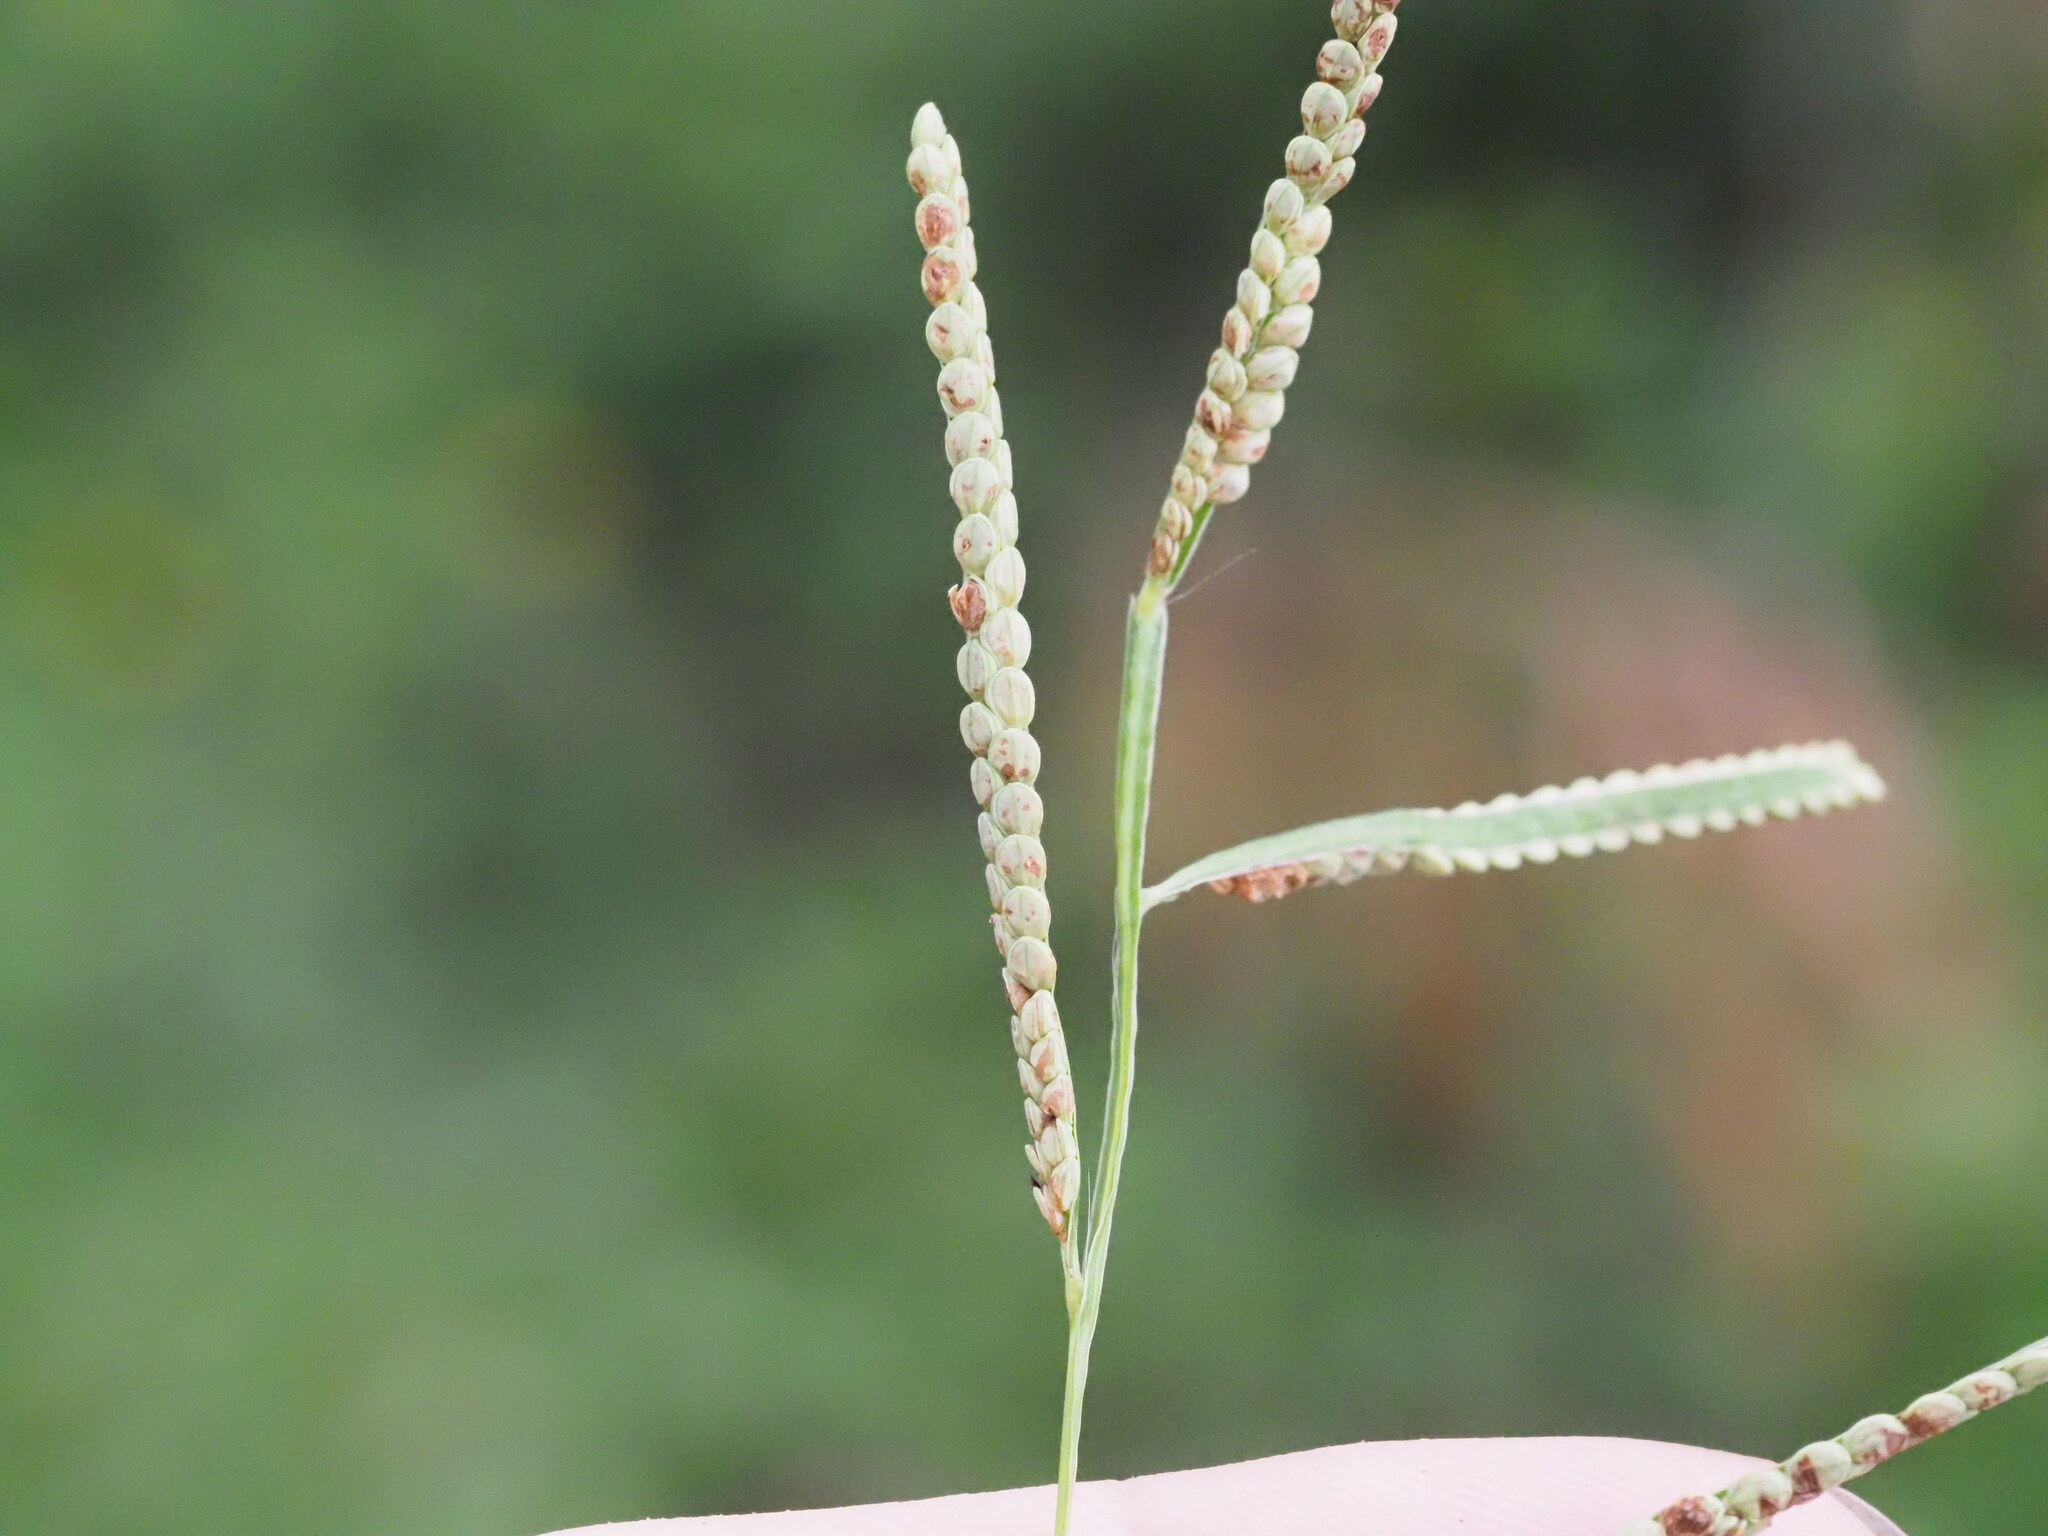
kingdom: Plantae
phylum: Tracheophyta
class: Liliopsida
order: Poales
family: Poaceae
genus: Paspalum
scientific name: Paspalum scrobiculatum
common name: Kodo millet
